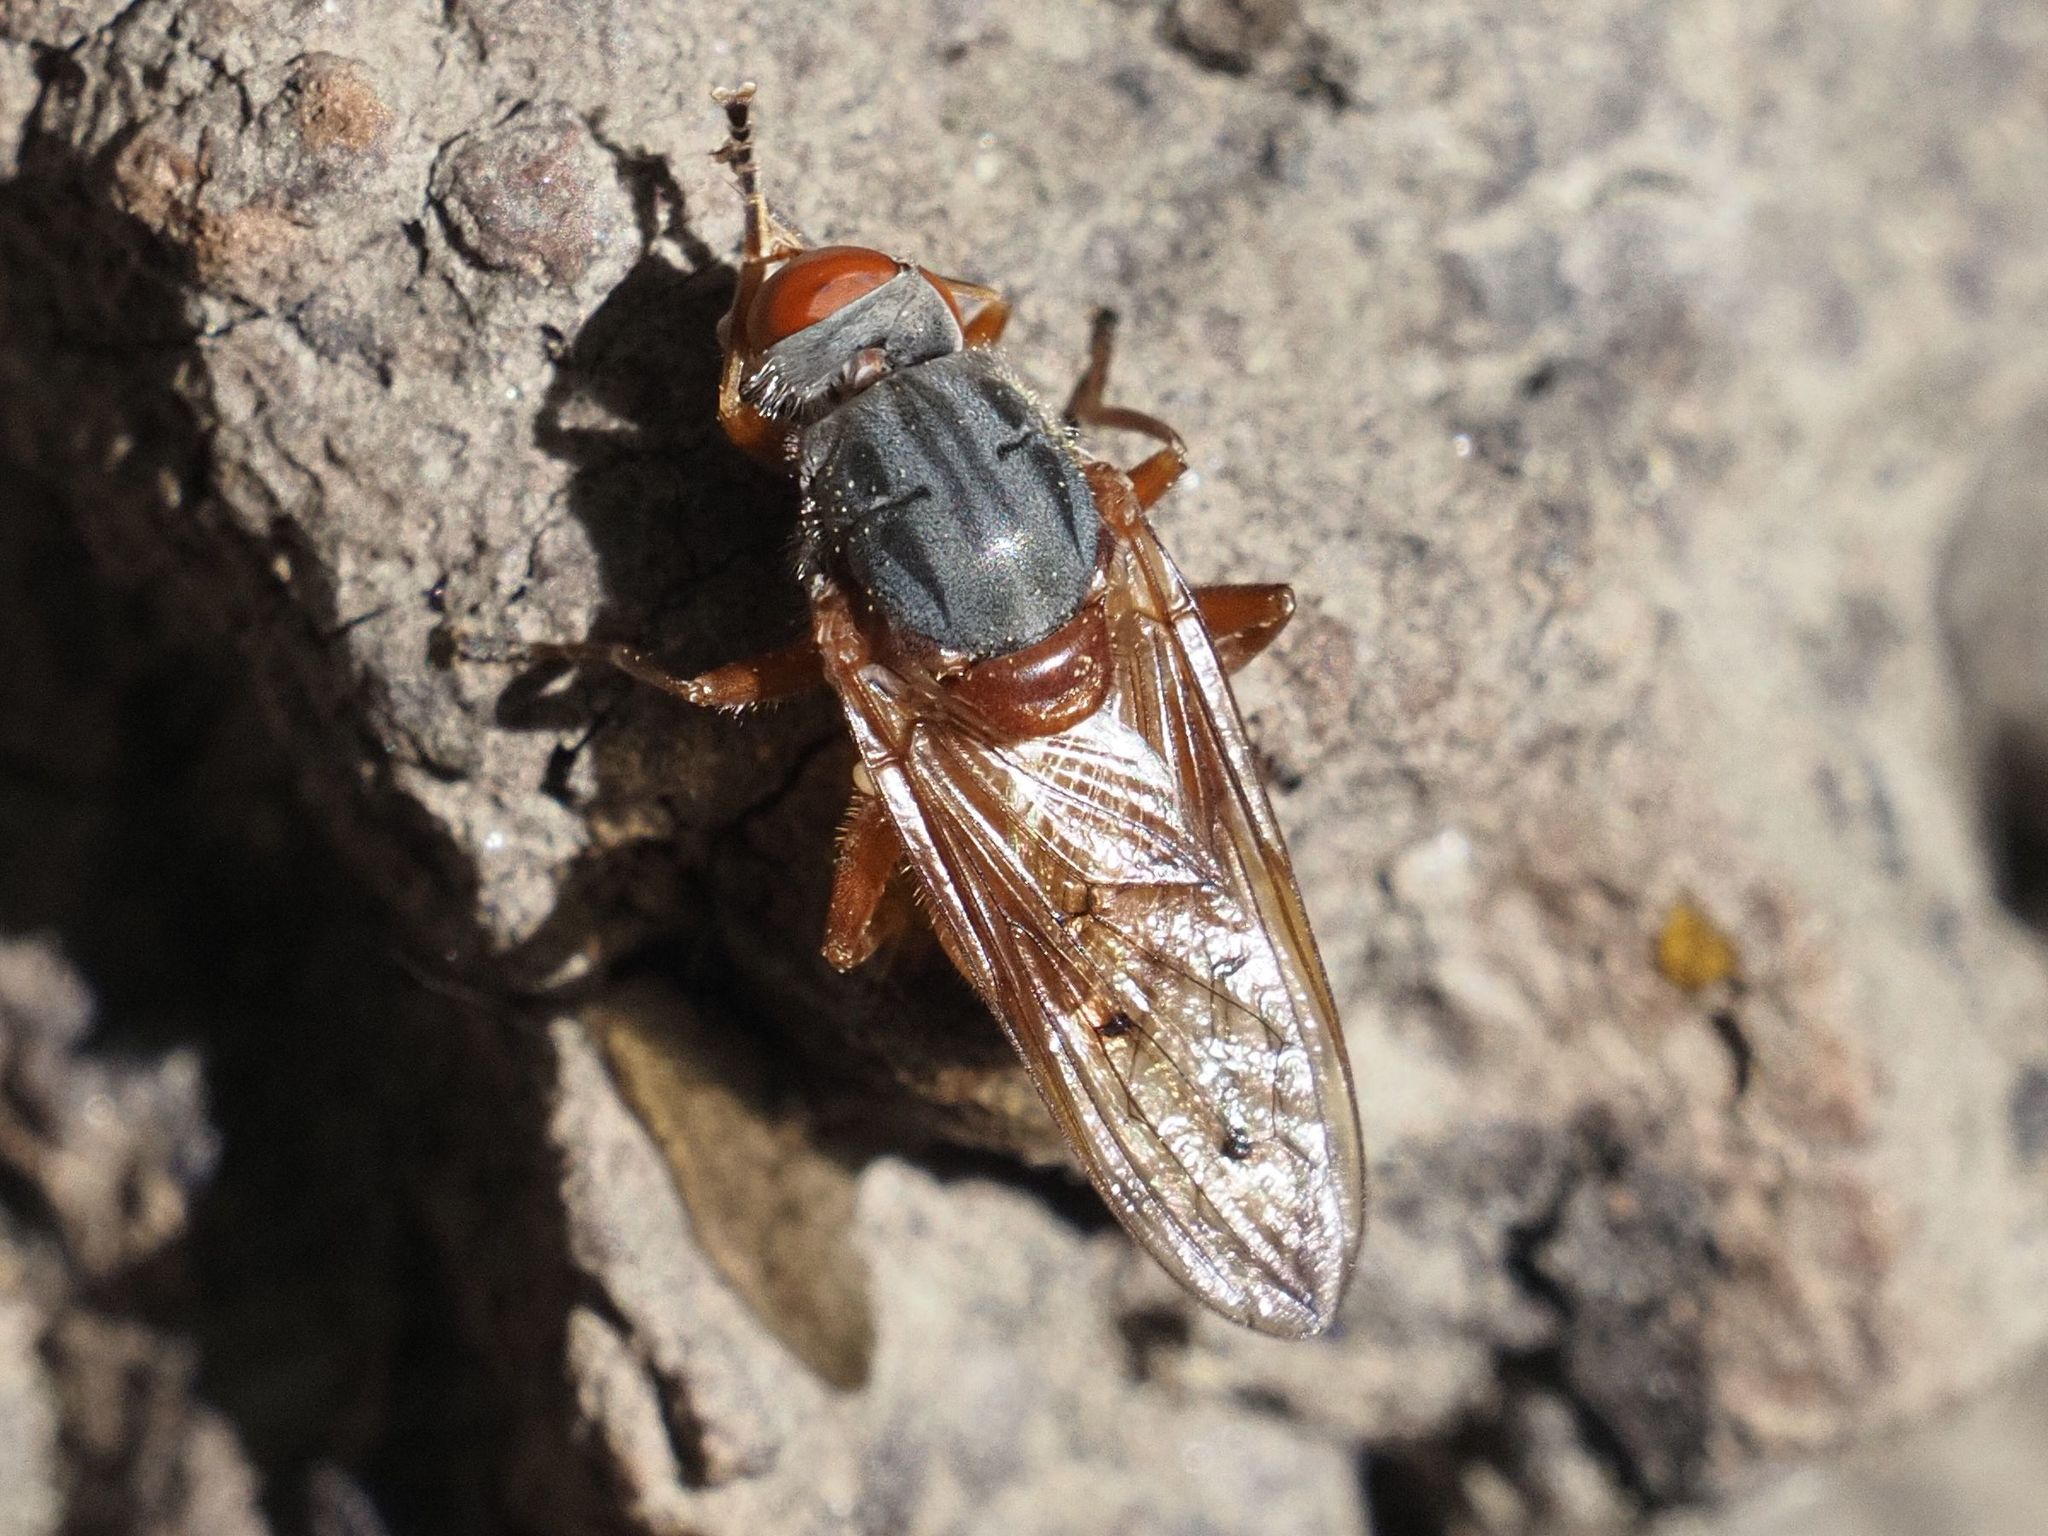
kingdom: Animalia
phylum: Arthropoda
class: Insecta
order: Diptera
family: Syrphidae
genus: Brachyopa
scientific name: Brachyopa maculipennis
